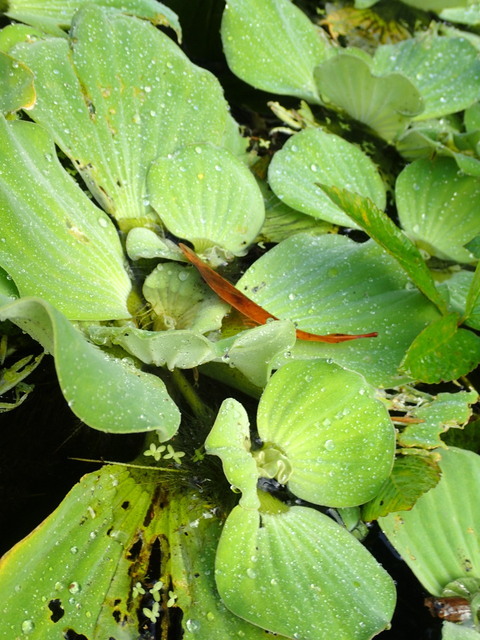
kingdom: Plantae
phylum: Tracheophyta
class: Liliopsida
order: Alismatales
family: Araceae
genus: Pistia
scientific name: Pistia stratiotes
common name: Water lettuce
